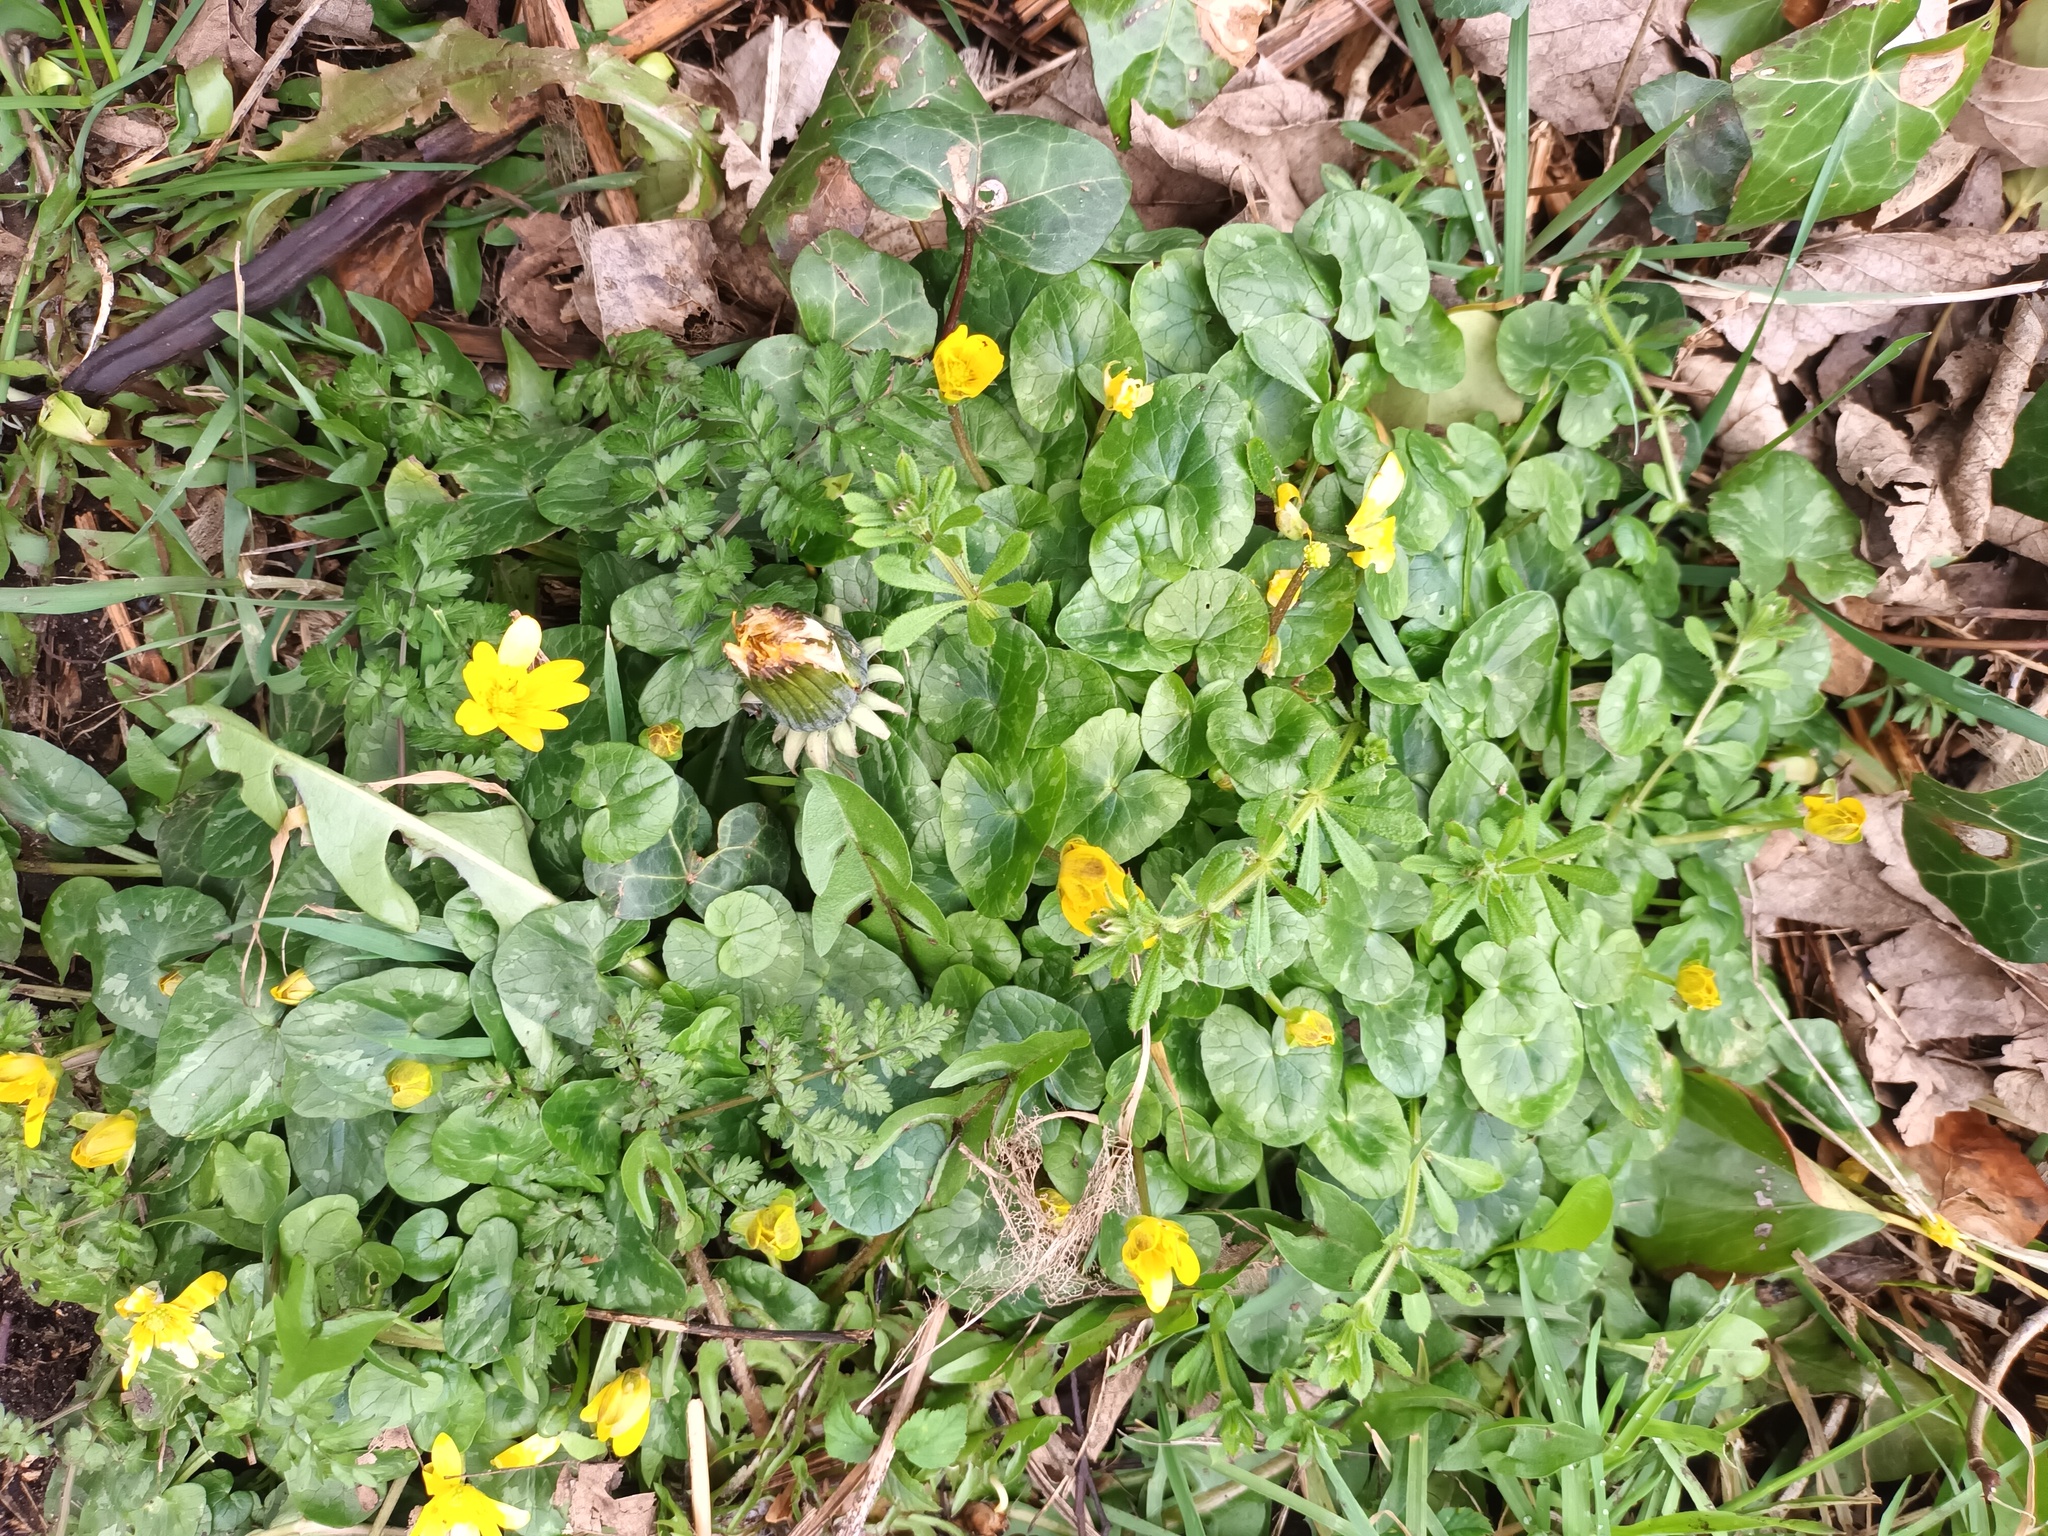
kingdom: Plantae
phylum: Tracheophyta
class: Magnoliopsida
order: Ranunculales
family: Ranunculaceae
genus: Ficaria
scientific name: Ficaria verna
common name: Lesser celandine
